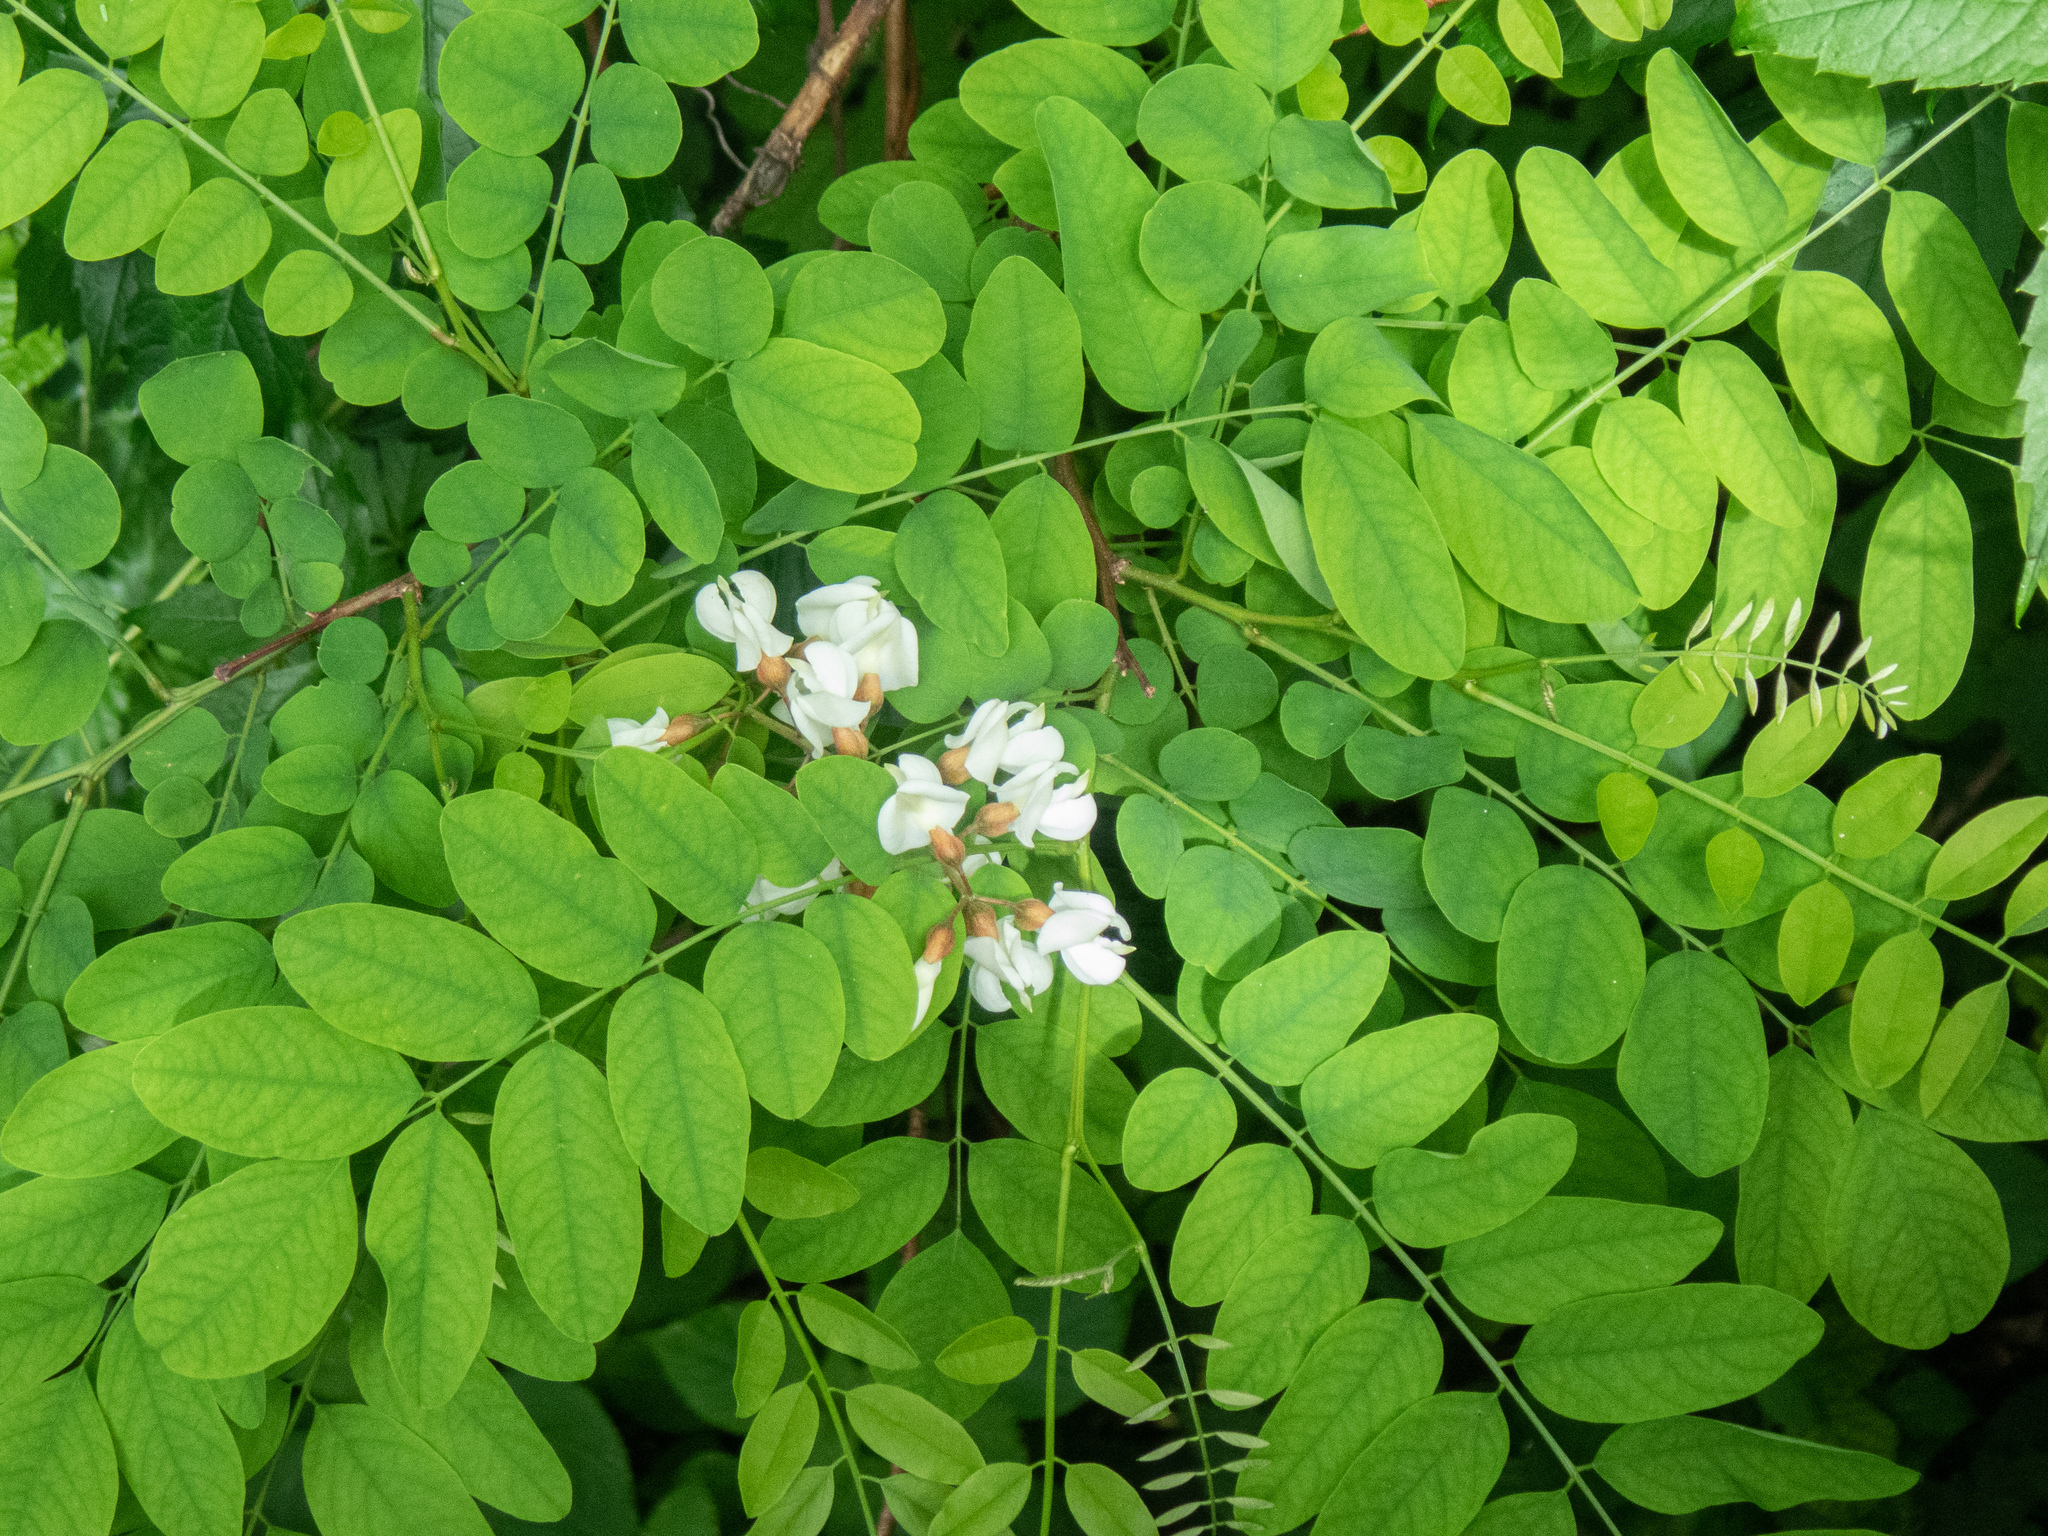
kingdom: Plantae
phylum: Tracheophyta
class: Magnoliopsida
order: Fabales
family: Fabaceae
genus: Robinia
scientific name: Robinia pseudoacacia
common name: Black locust
